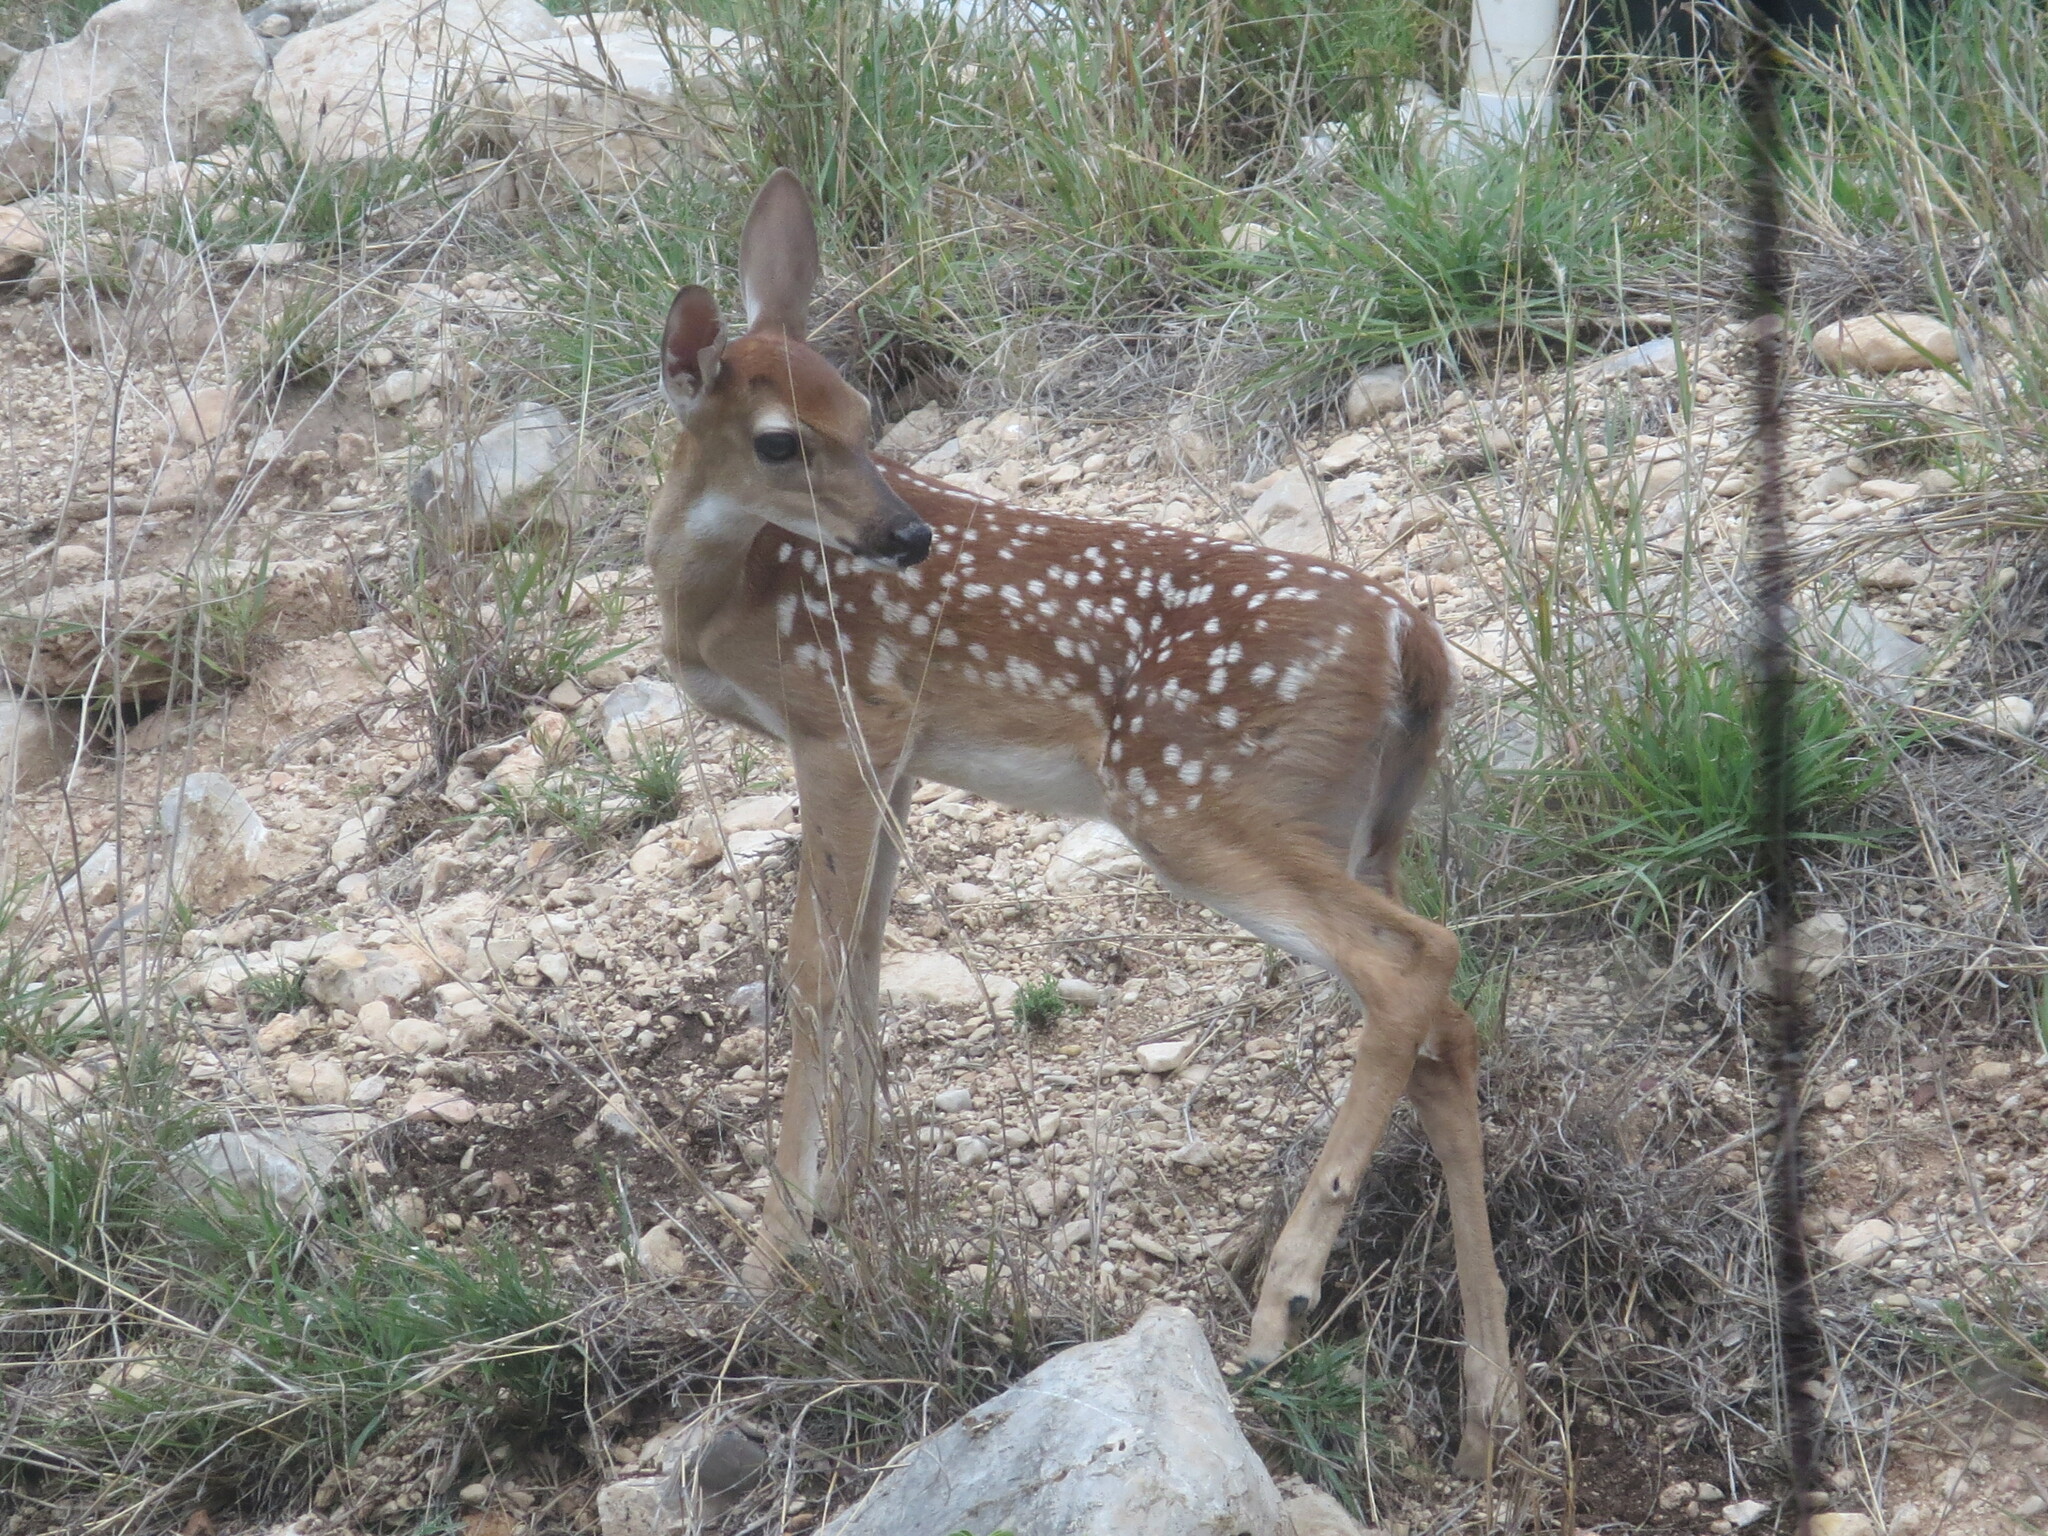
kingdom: Animalia
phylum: Chordata
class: Mammalia
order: Artiodactyla
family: Cervidae
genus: Odocoileus
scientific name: Odocoileus virginianus
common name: White-tailed deer
